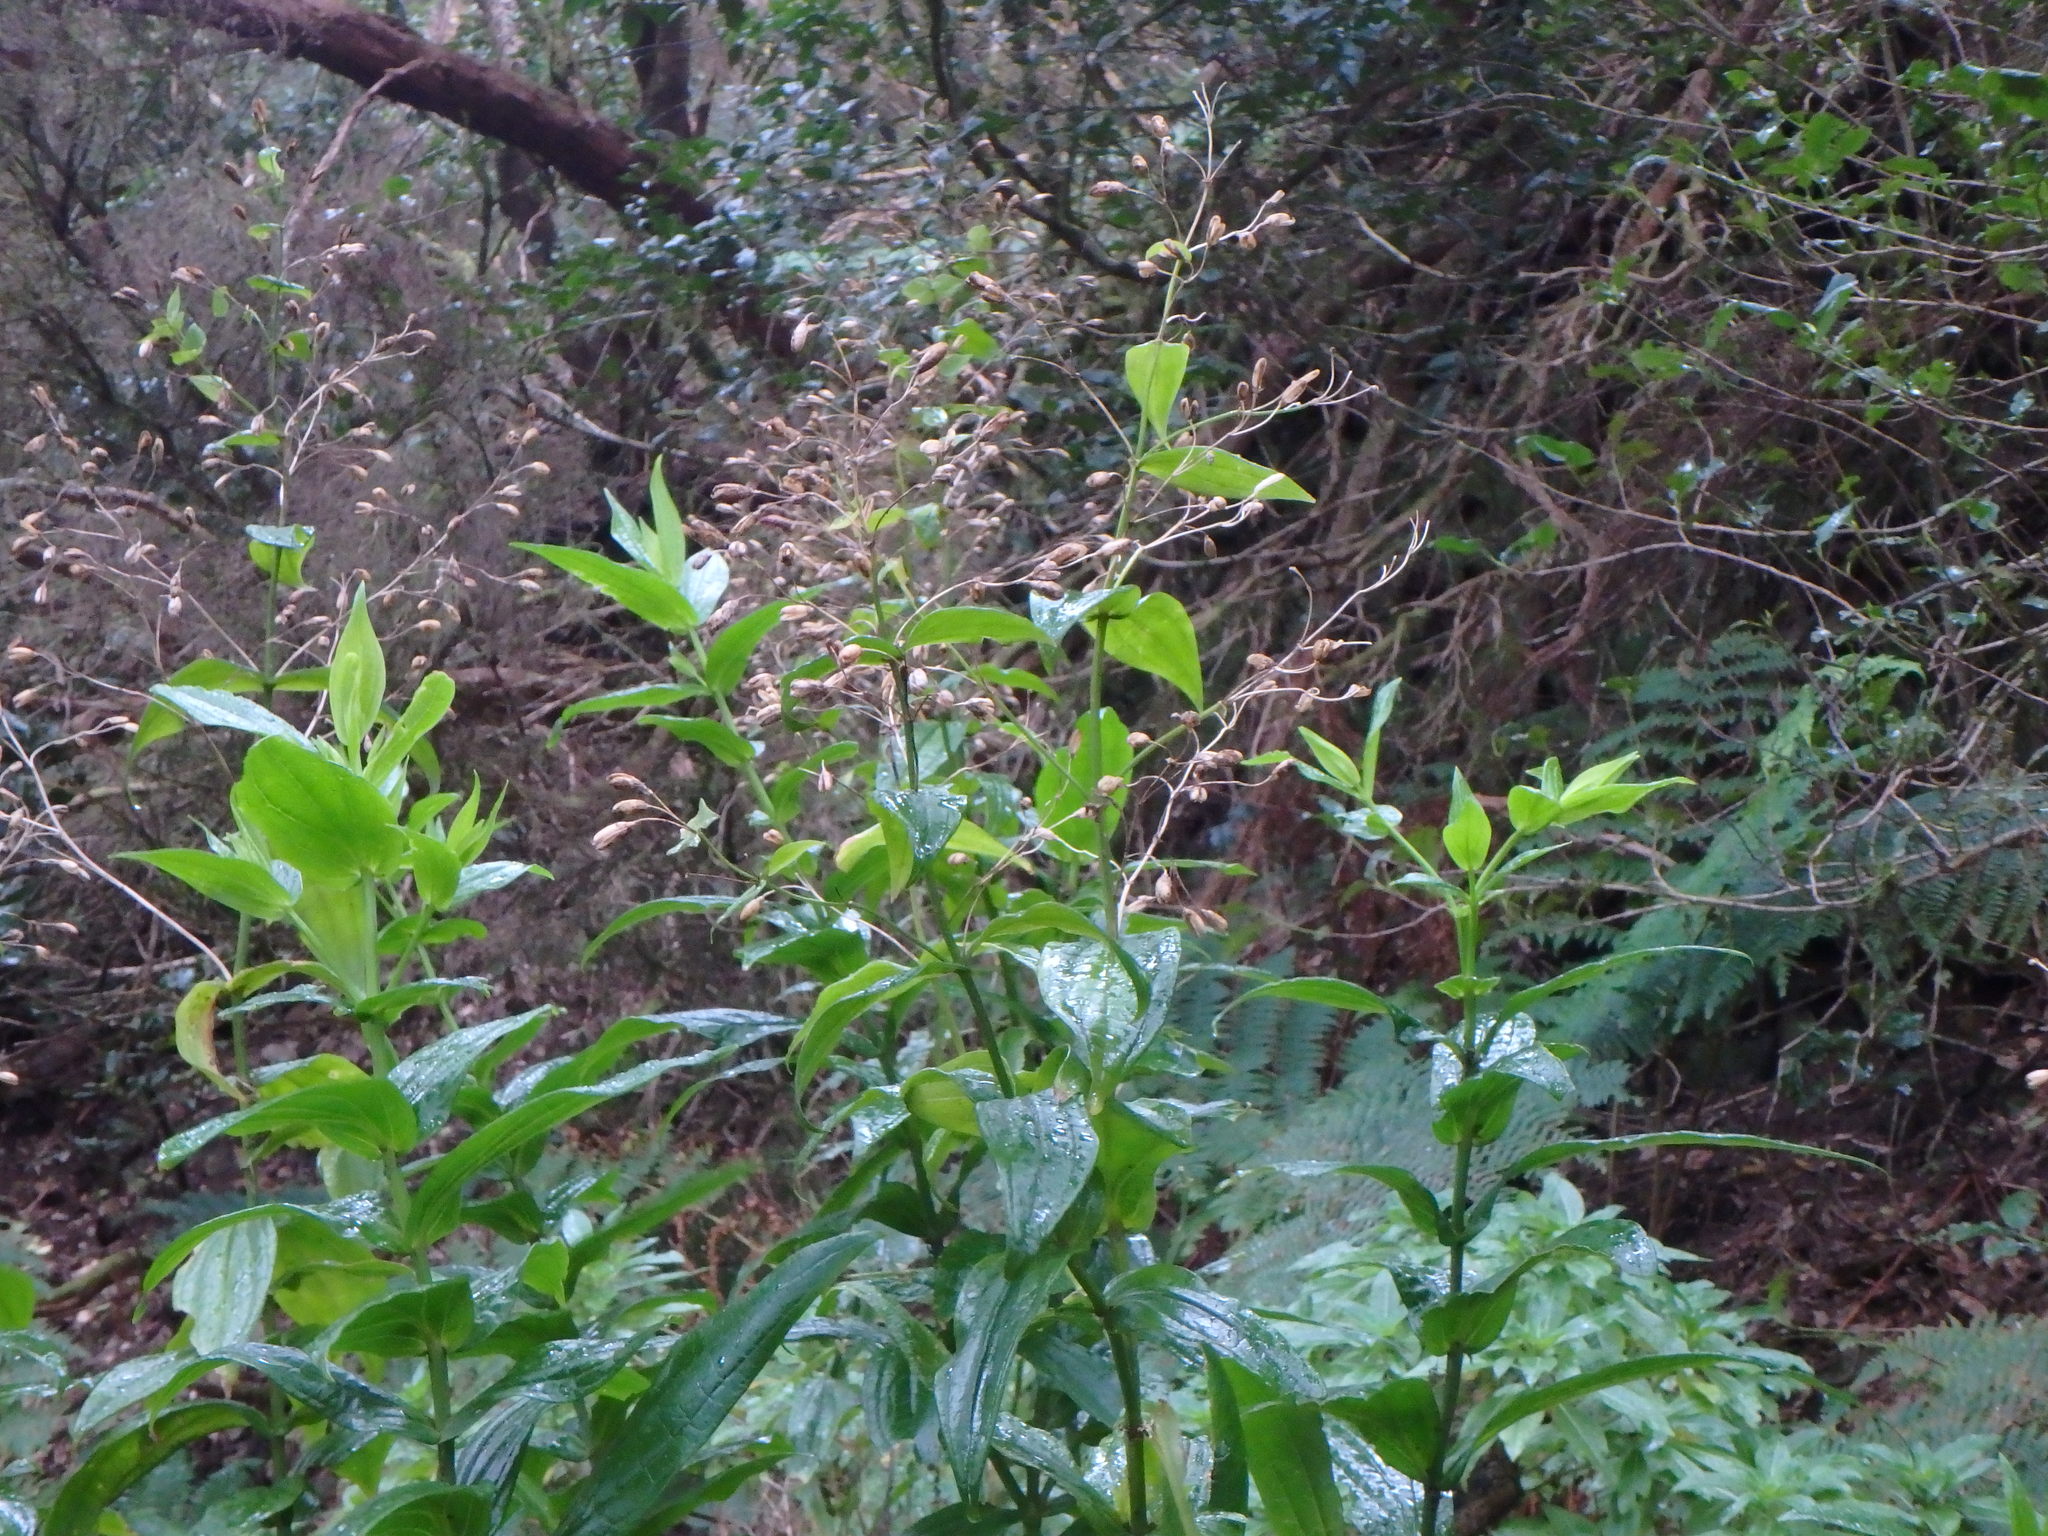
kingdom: Plantae
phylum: Tracheophyta
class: Magnoliopsida
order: Gentianales
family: Gentianaceae
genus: Ixanthus
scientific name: Ixanthus viscosus
